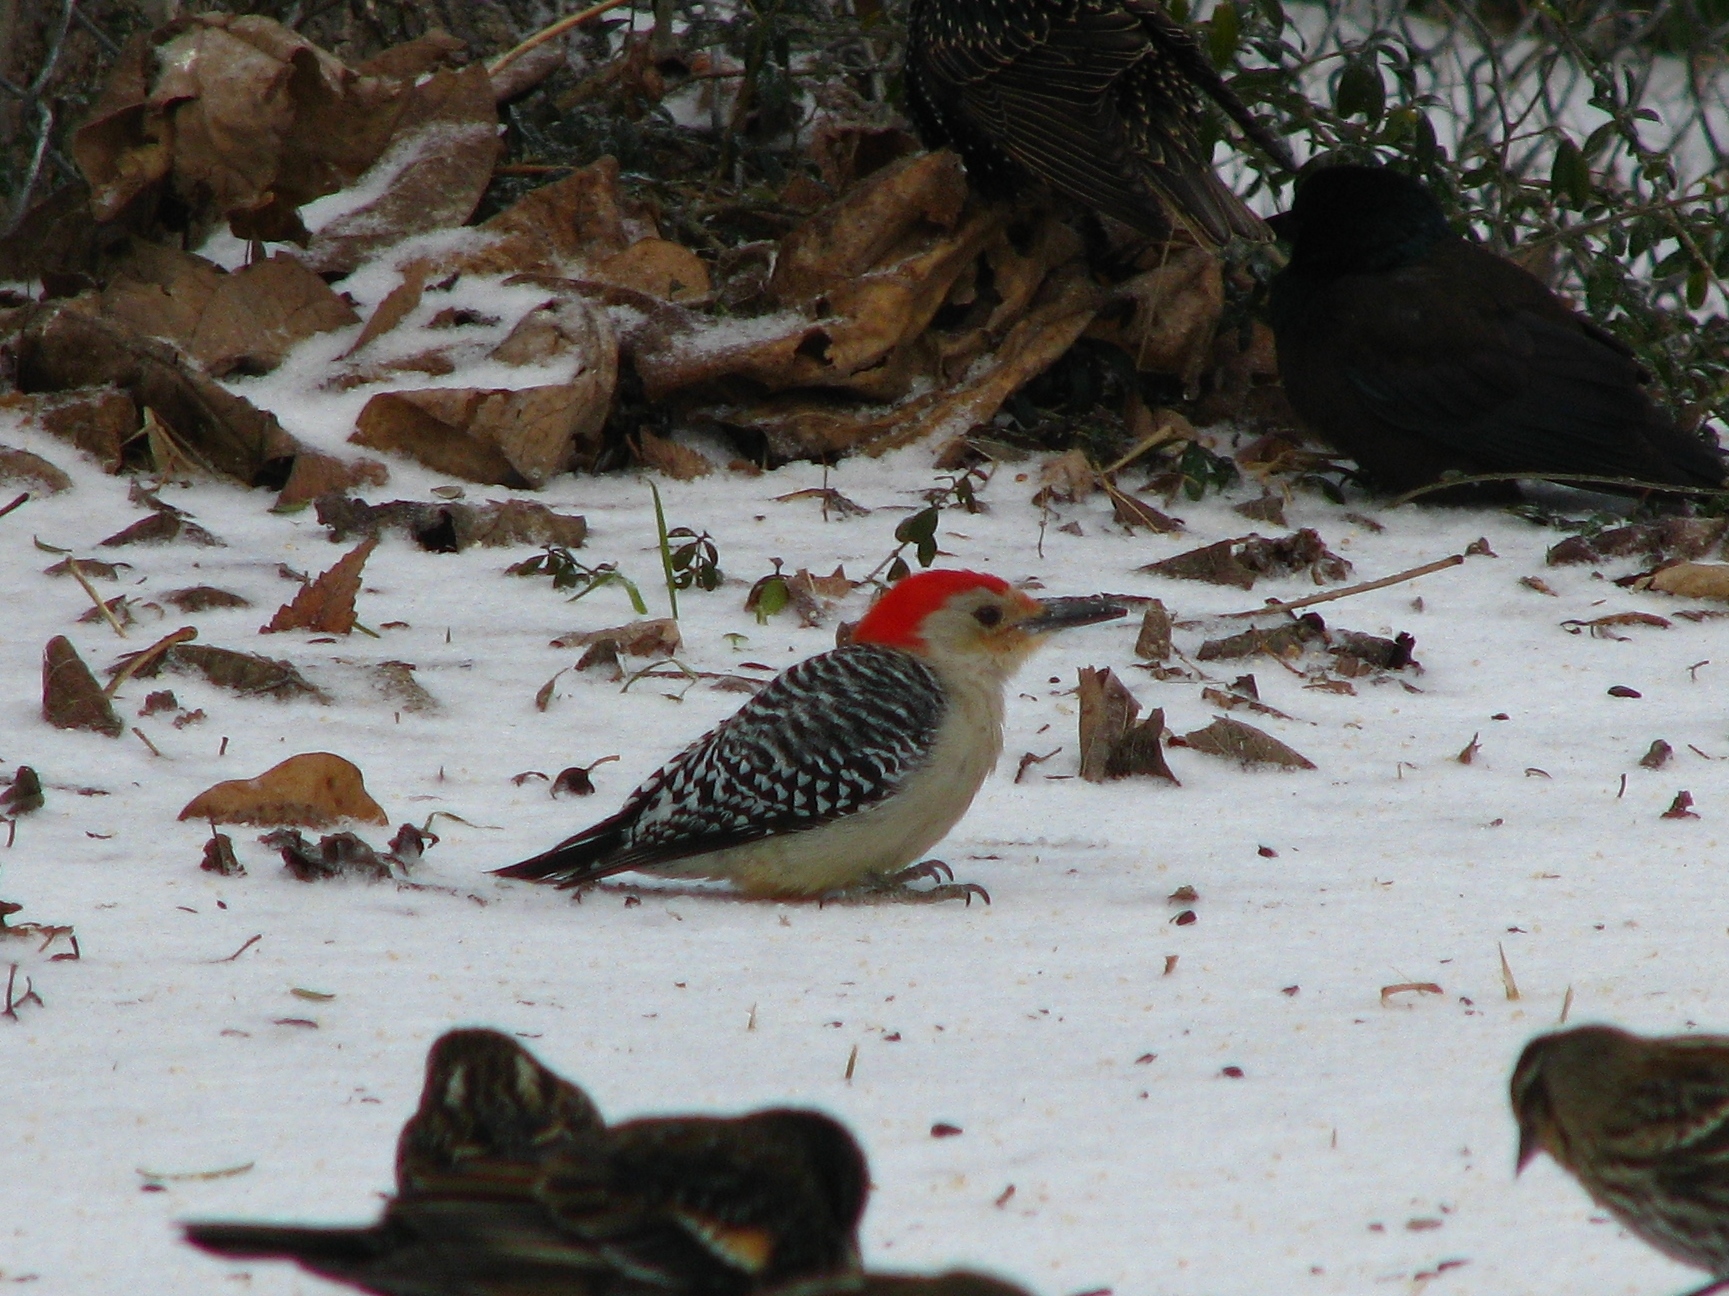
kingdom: Animalia
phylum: Chordata
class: Aves
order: Piciformes
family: Picidae
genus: Melanerpes
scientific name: Melanerpes carolinus
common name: Red-bellied woodpecker
